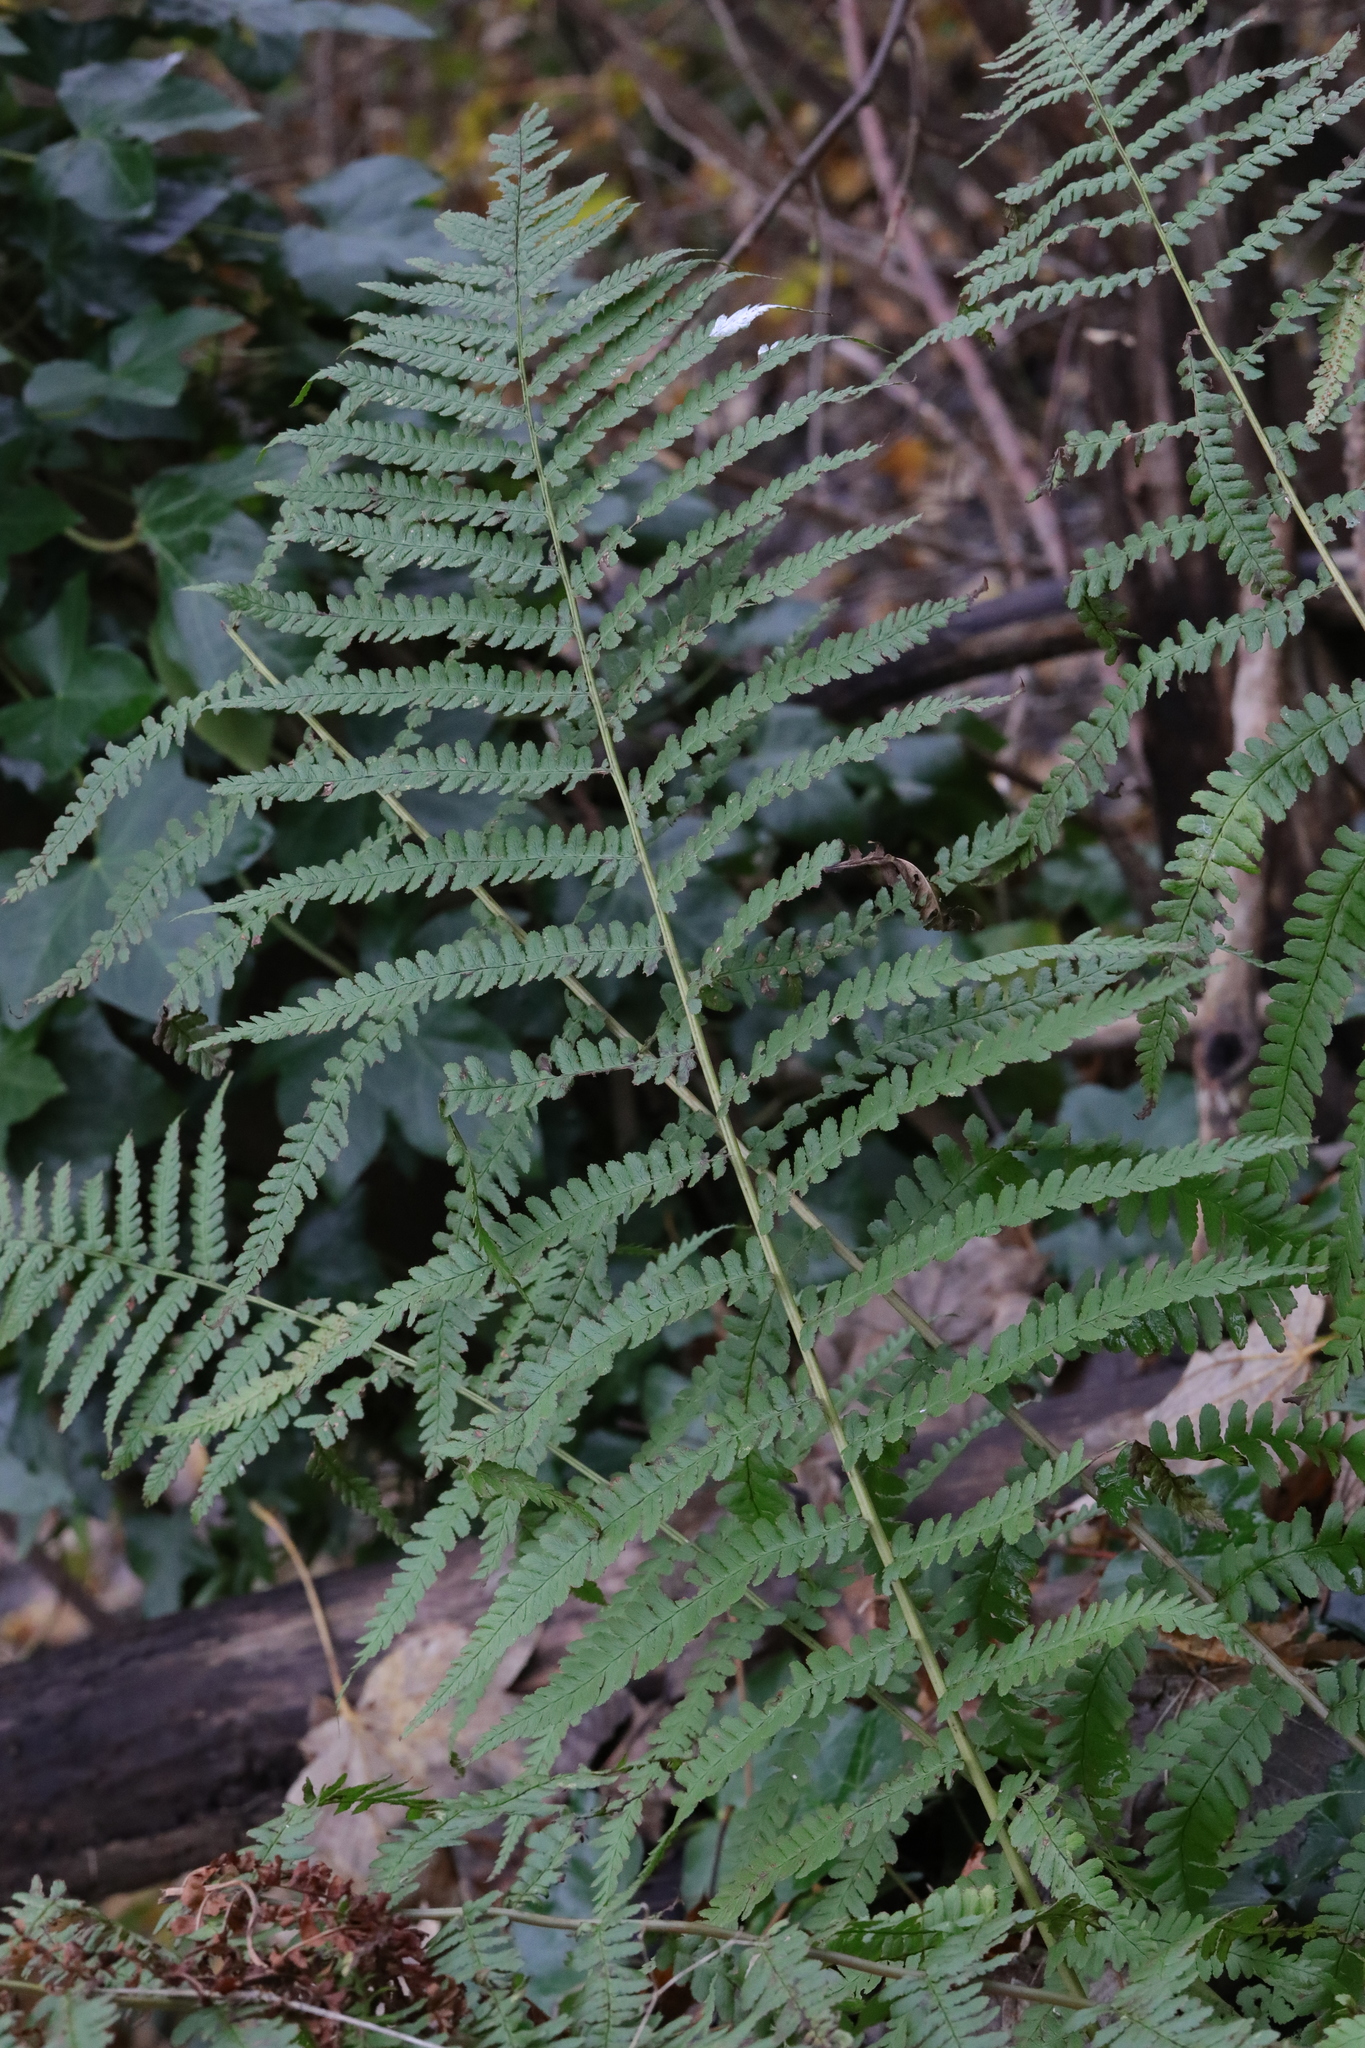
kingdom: Plantae
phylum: Tracheophyta
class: Polypodiopsida
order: Polypodiales
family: Dryopteridaceae
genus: Dryopteris
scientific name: Dryopteris filix-mas
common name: Male fern
